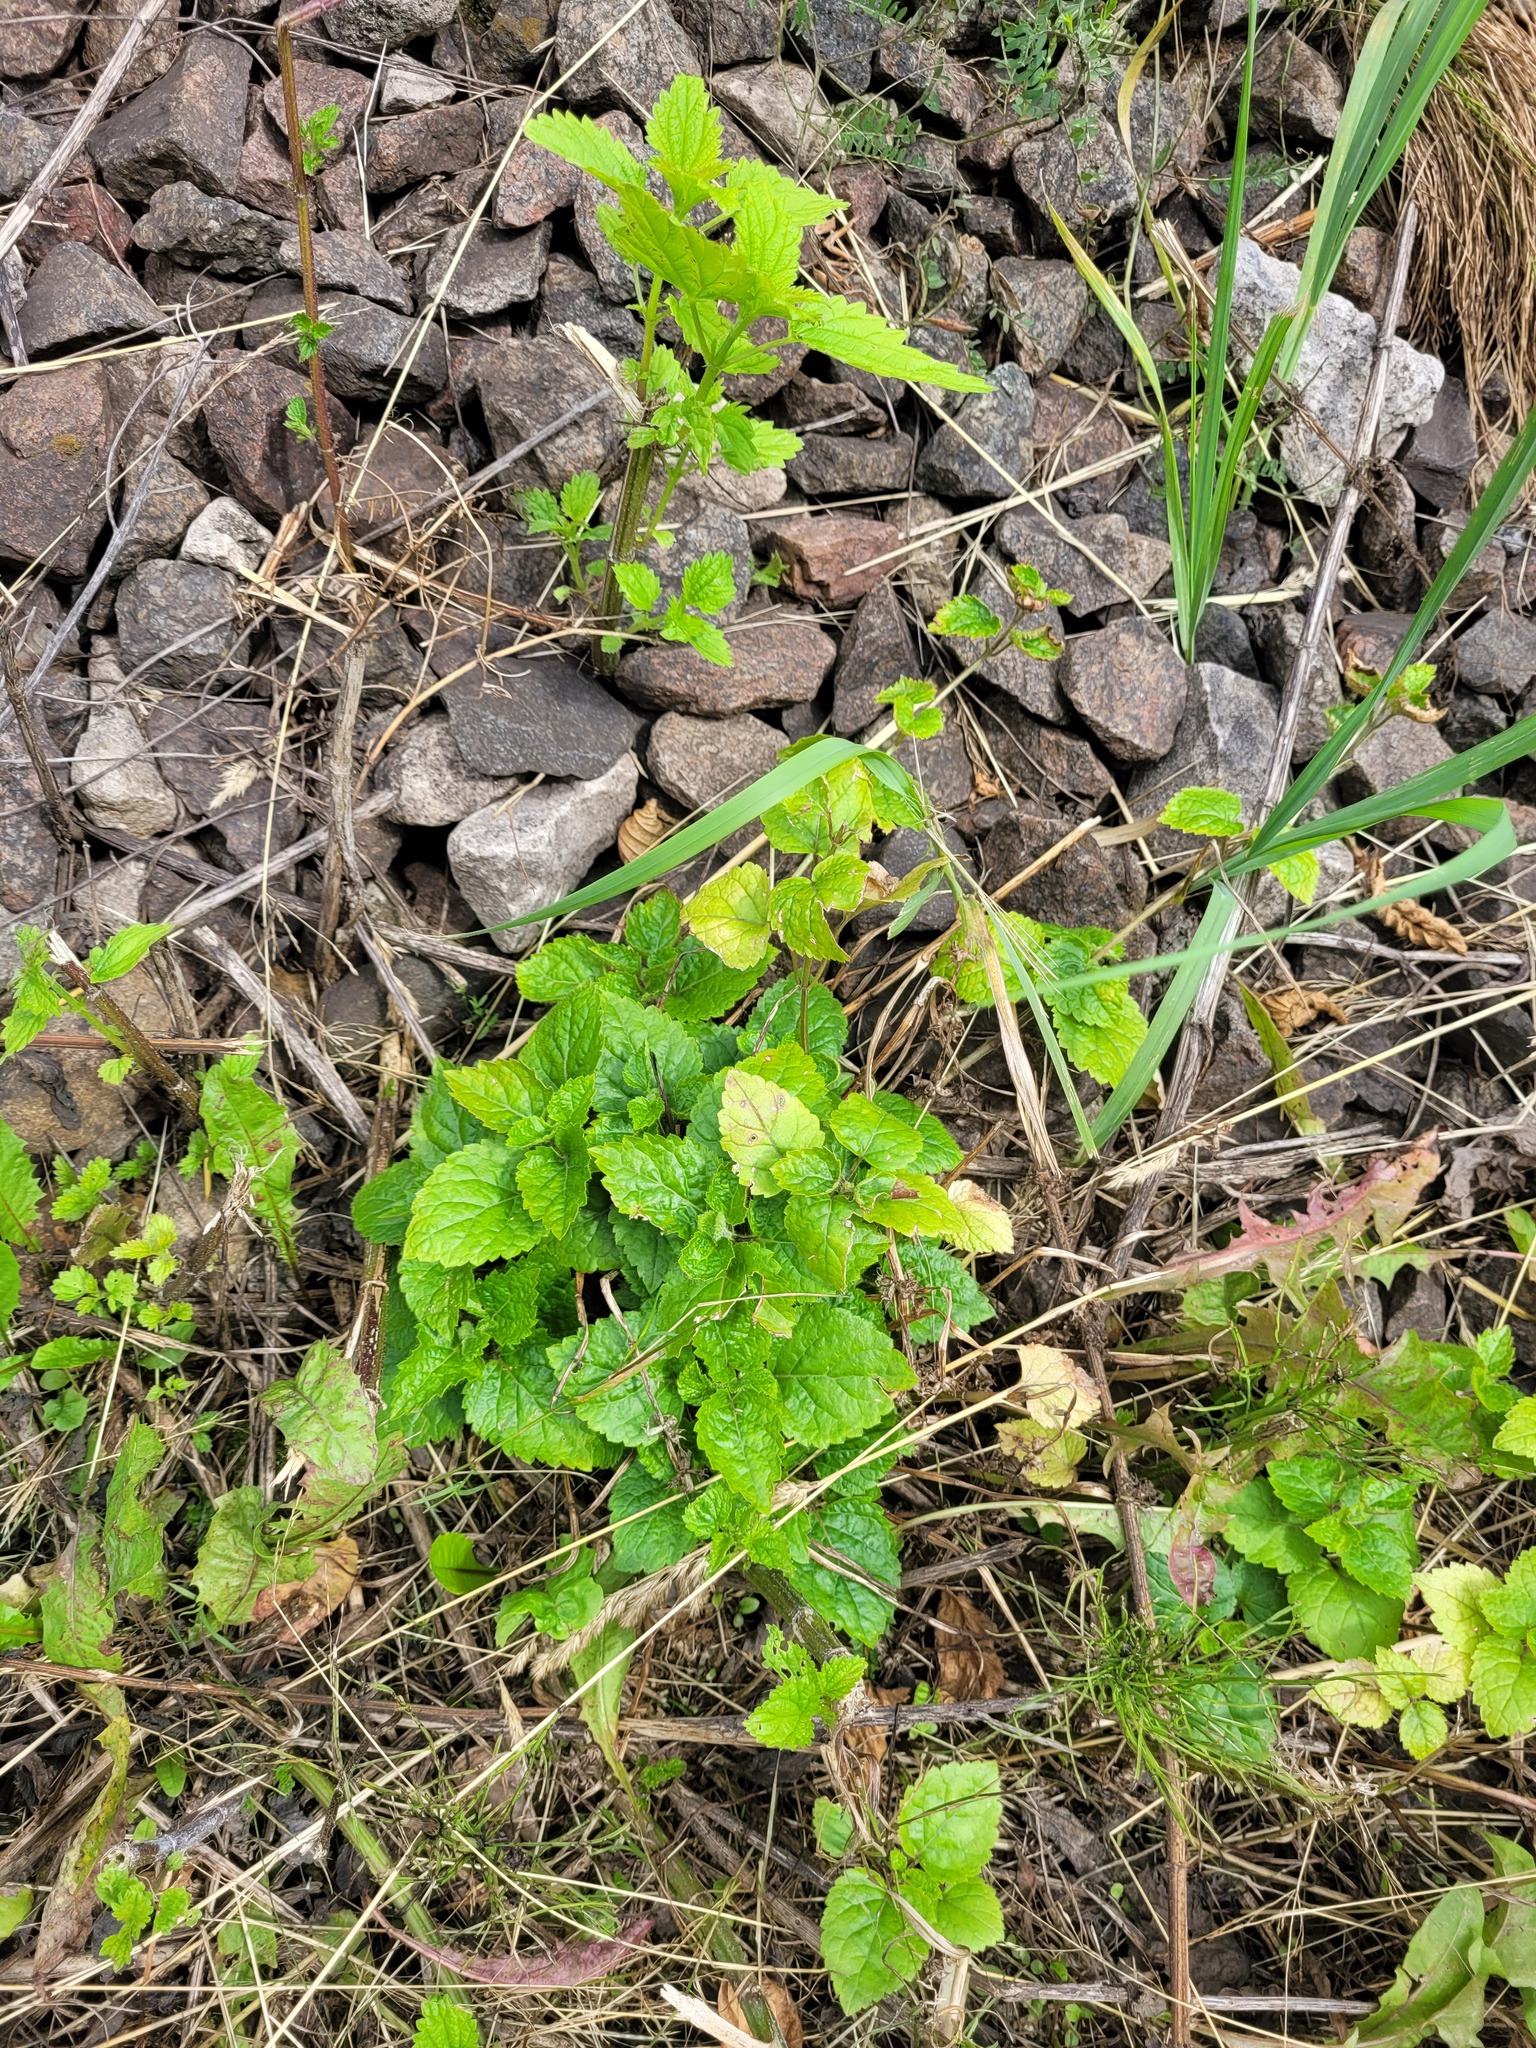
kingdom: Plantae
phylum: Tracheophyta
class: Magnoliopsida
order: Lamiales
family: Lamiaceae
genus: Lamium
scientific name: Lamium galeobdolon
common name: Yellow archangel
